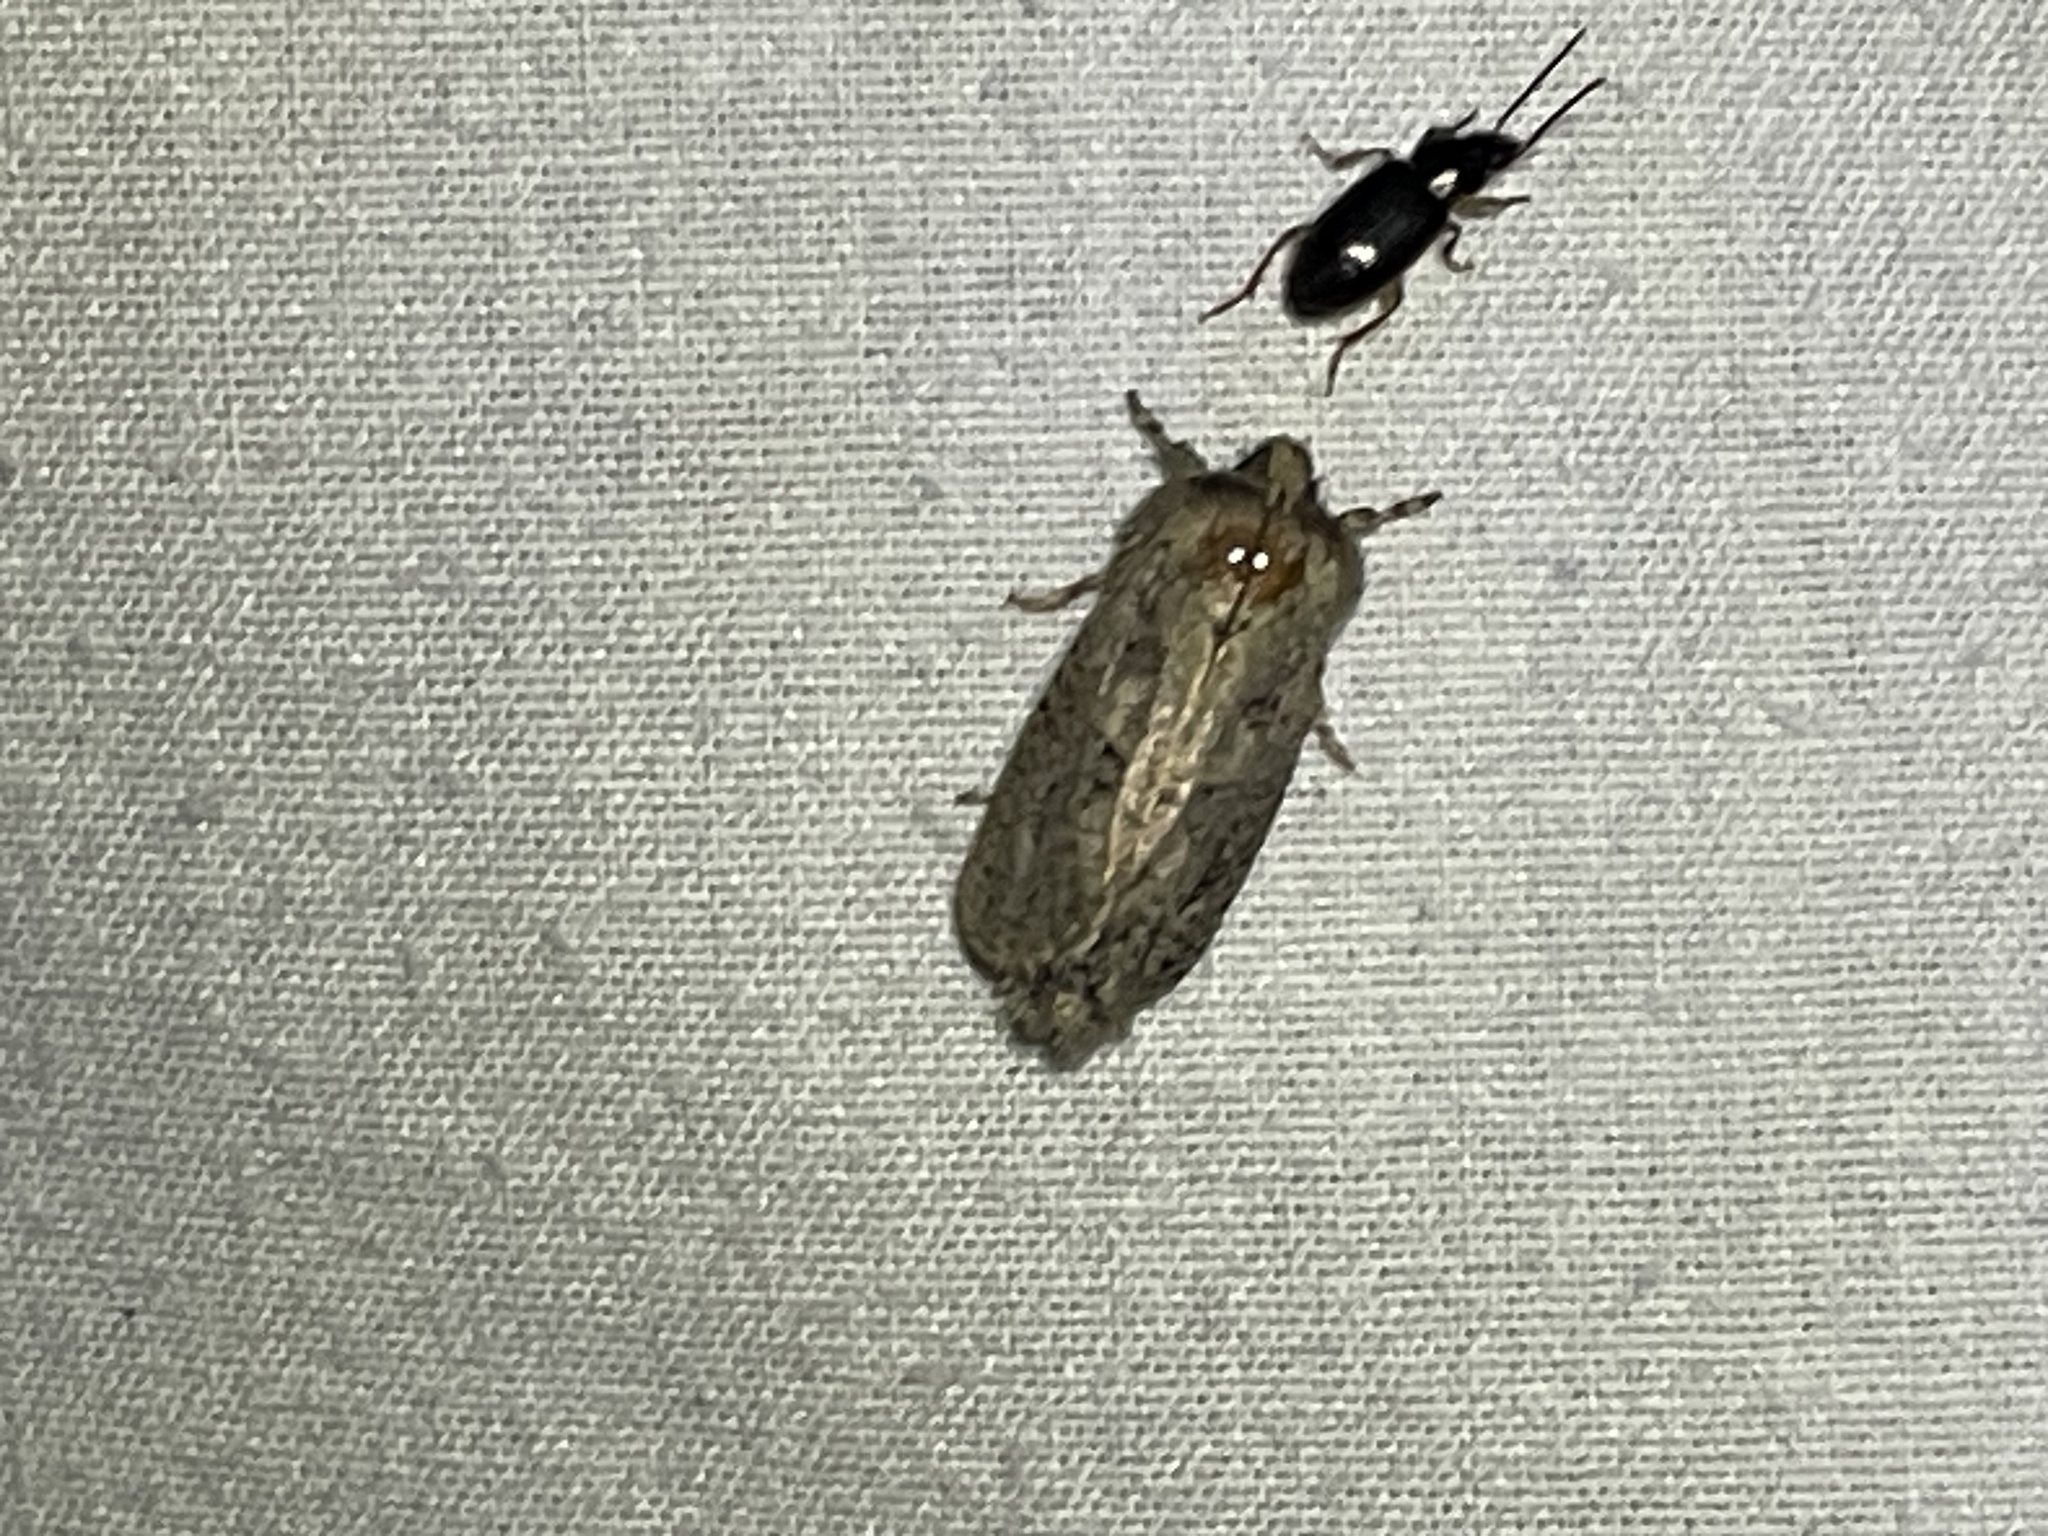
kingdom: Animalia
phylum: Arthropoda
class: Insecta
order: Lepidoptera
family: Tineidae
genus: Acrolophus
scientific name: Acrolophus arcanella
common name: Arcane grass tubeworm moth
